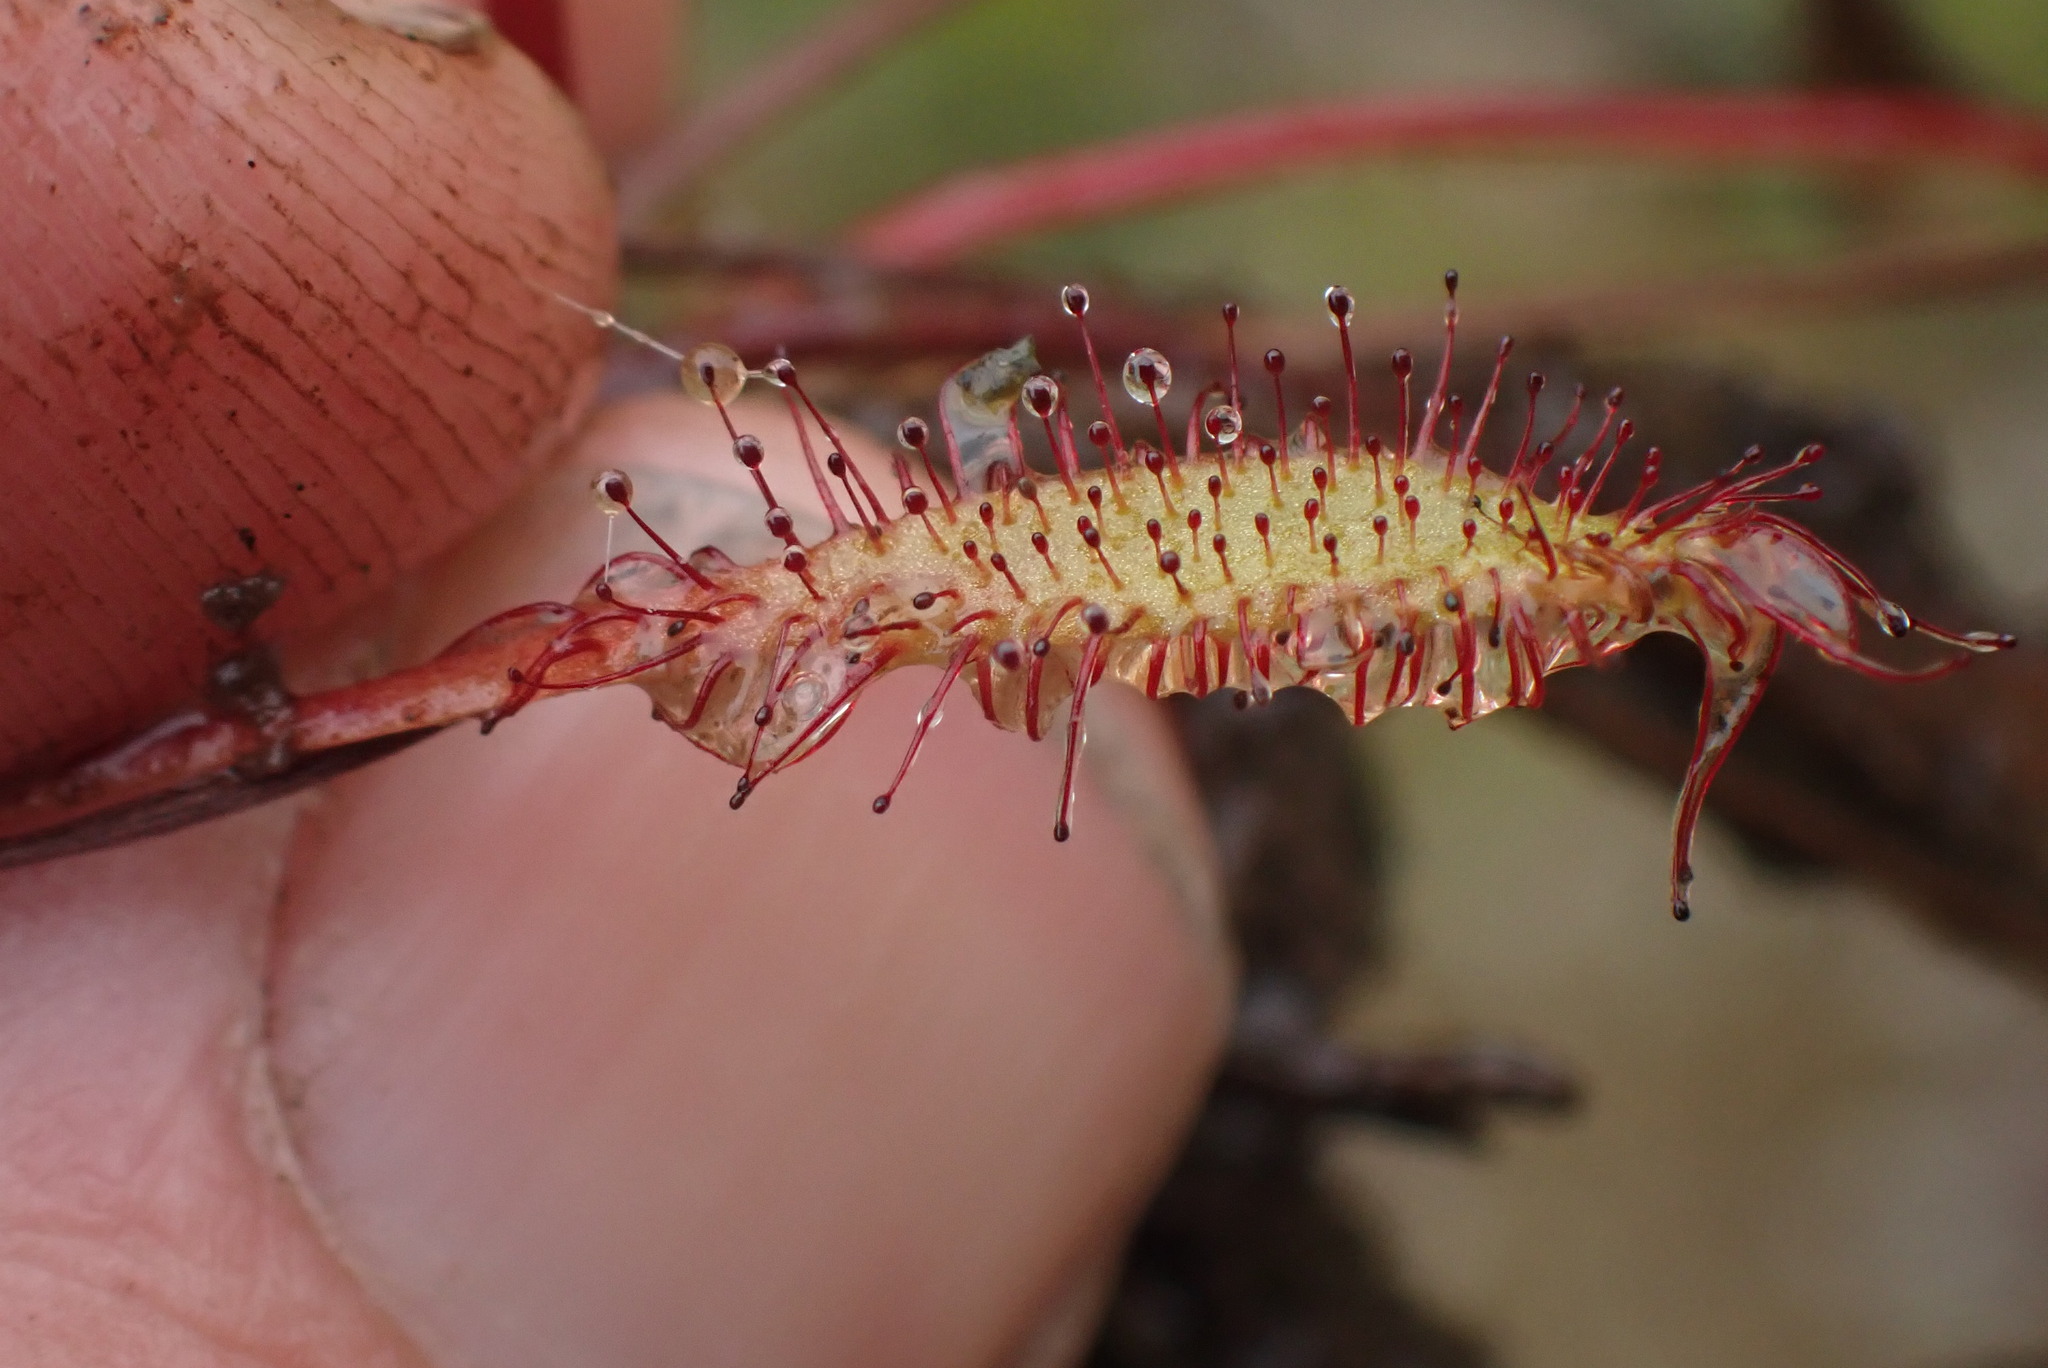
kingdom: Plantae
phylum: Tracheophyta
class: Magnoliopsida
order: Caryophyllales
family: Droseraceae
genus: Drosera
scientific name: Drosera anglica
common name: Great sundew
